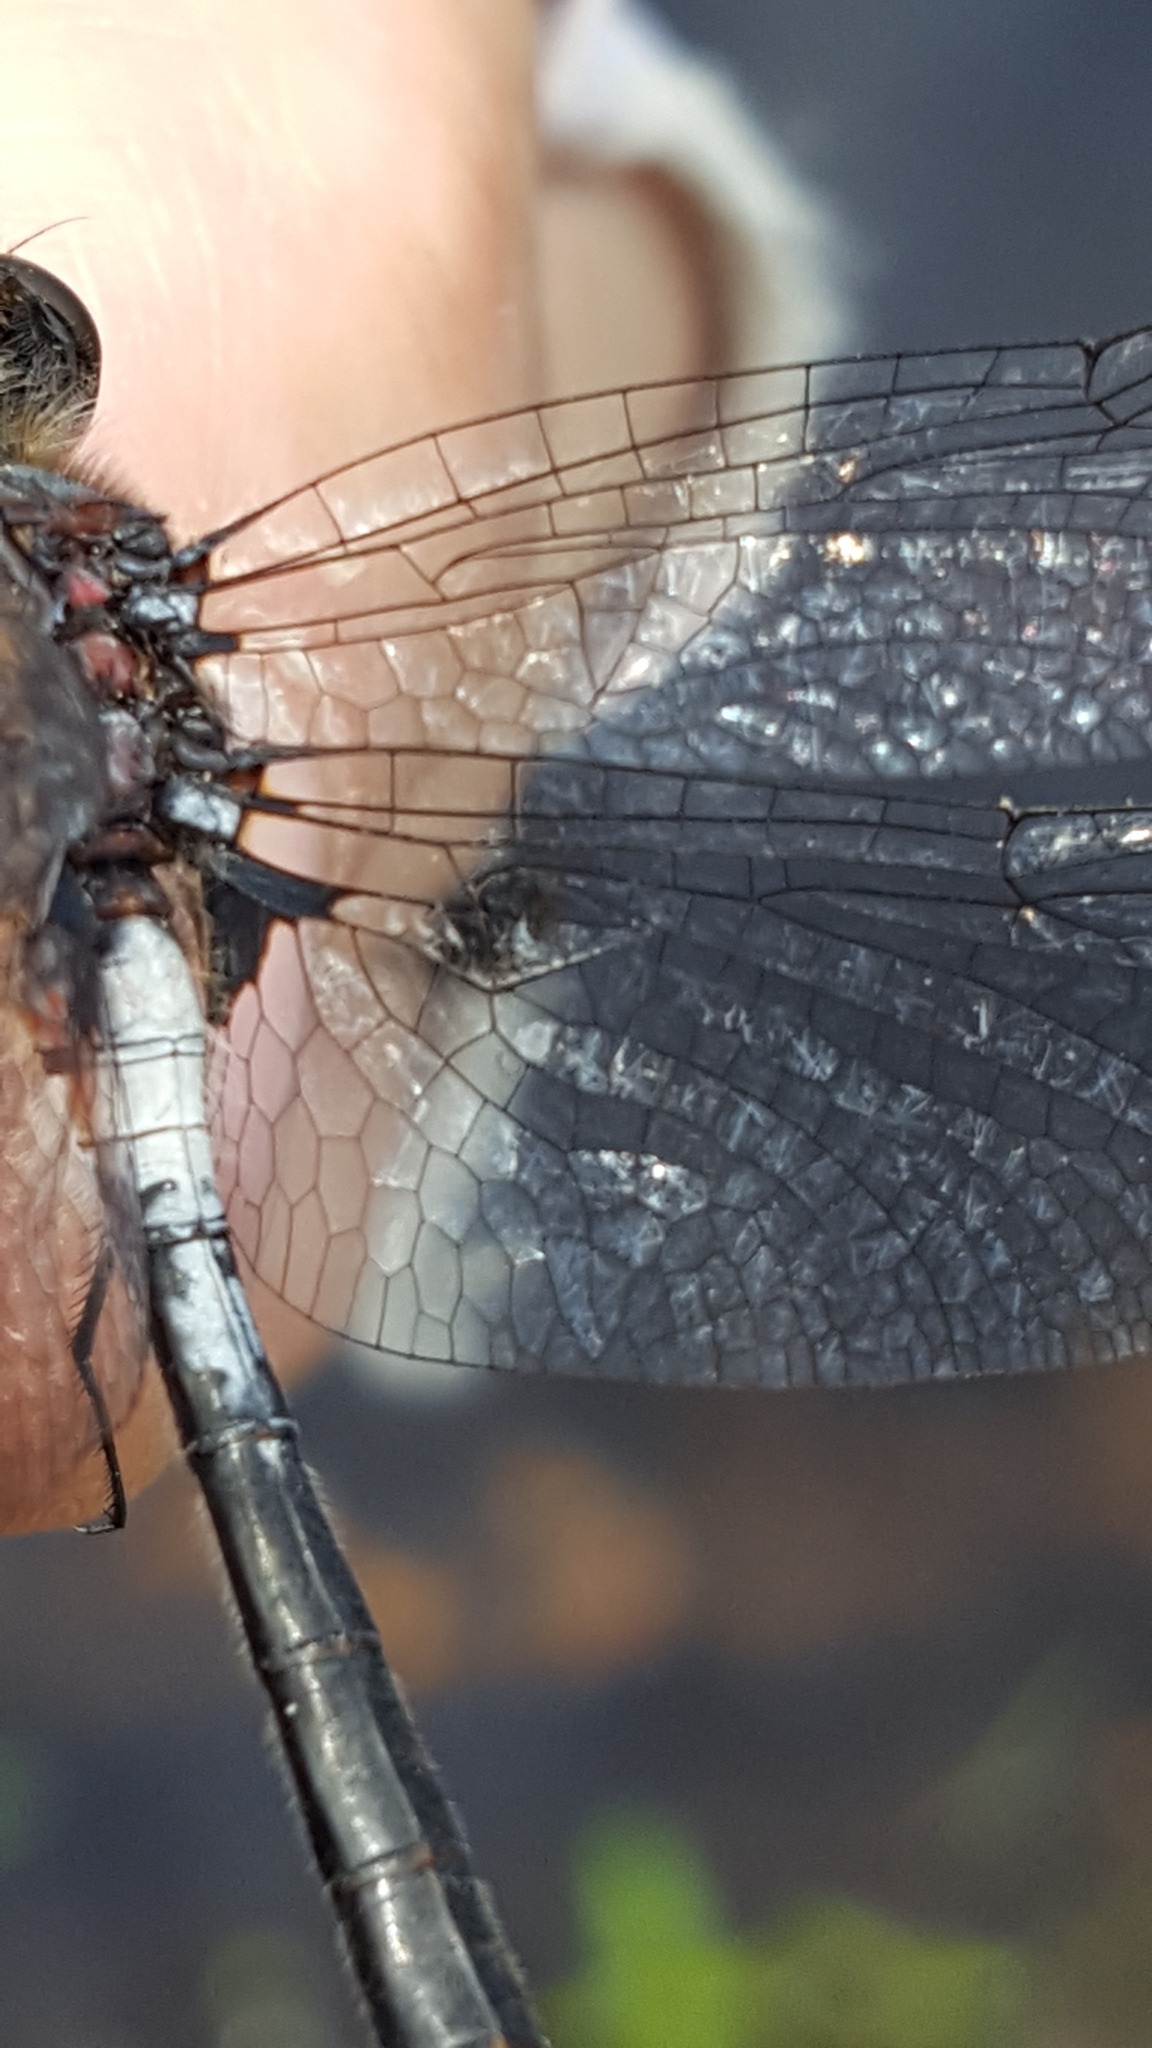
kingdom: Animalia
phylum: Arthropoda
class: Insecta
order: Odonata
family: Libellulidae
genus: Leucorrhinia
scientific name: Leucorrhinia proxima
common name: Belted whiteface
